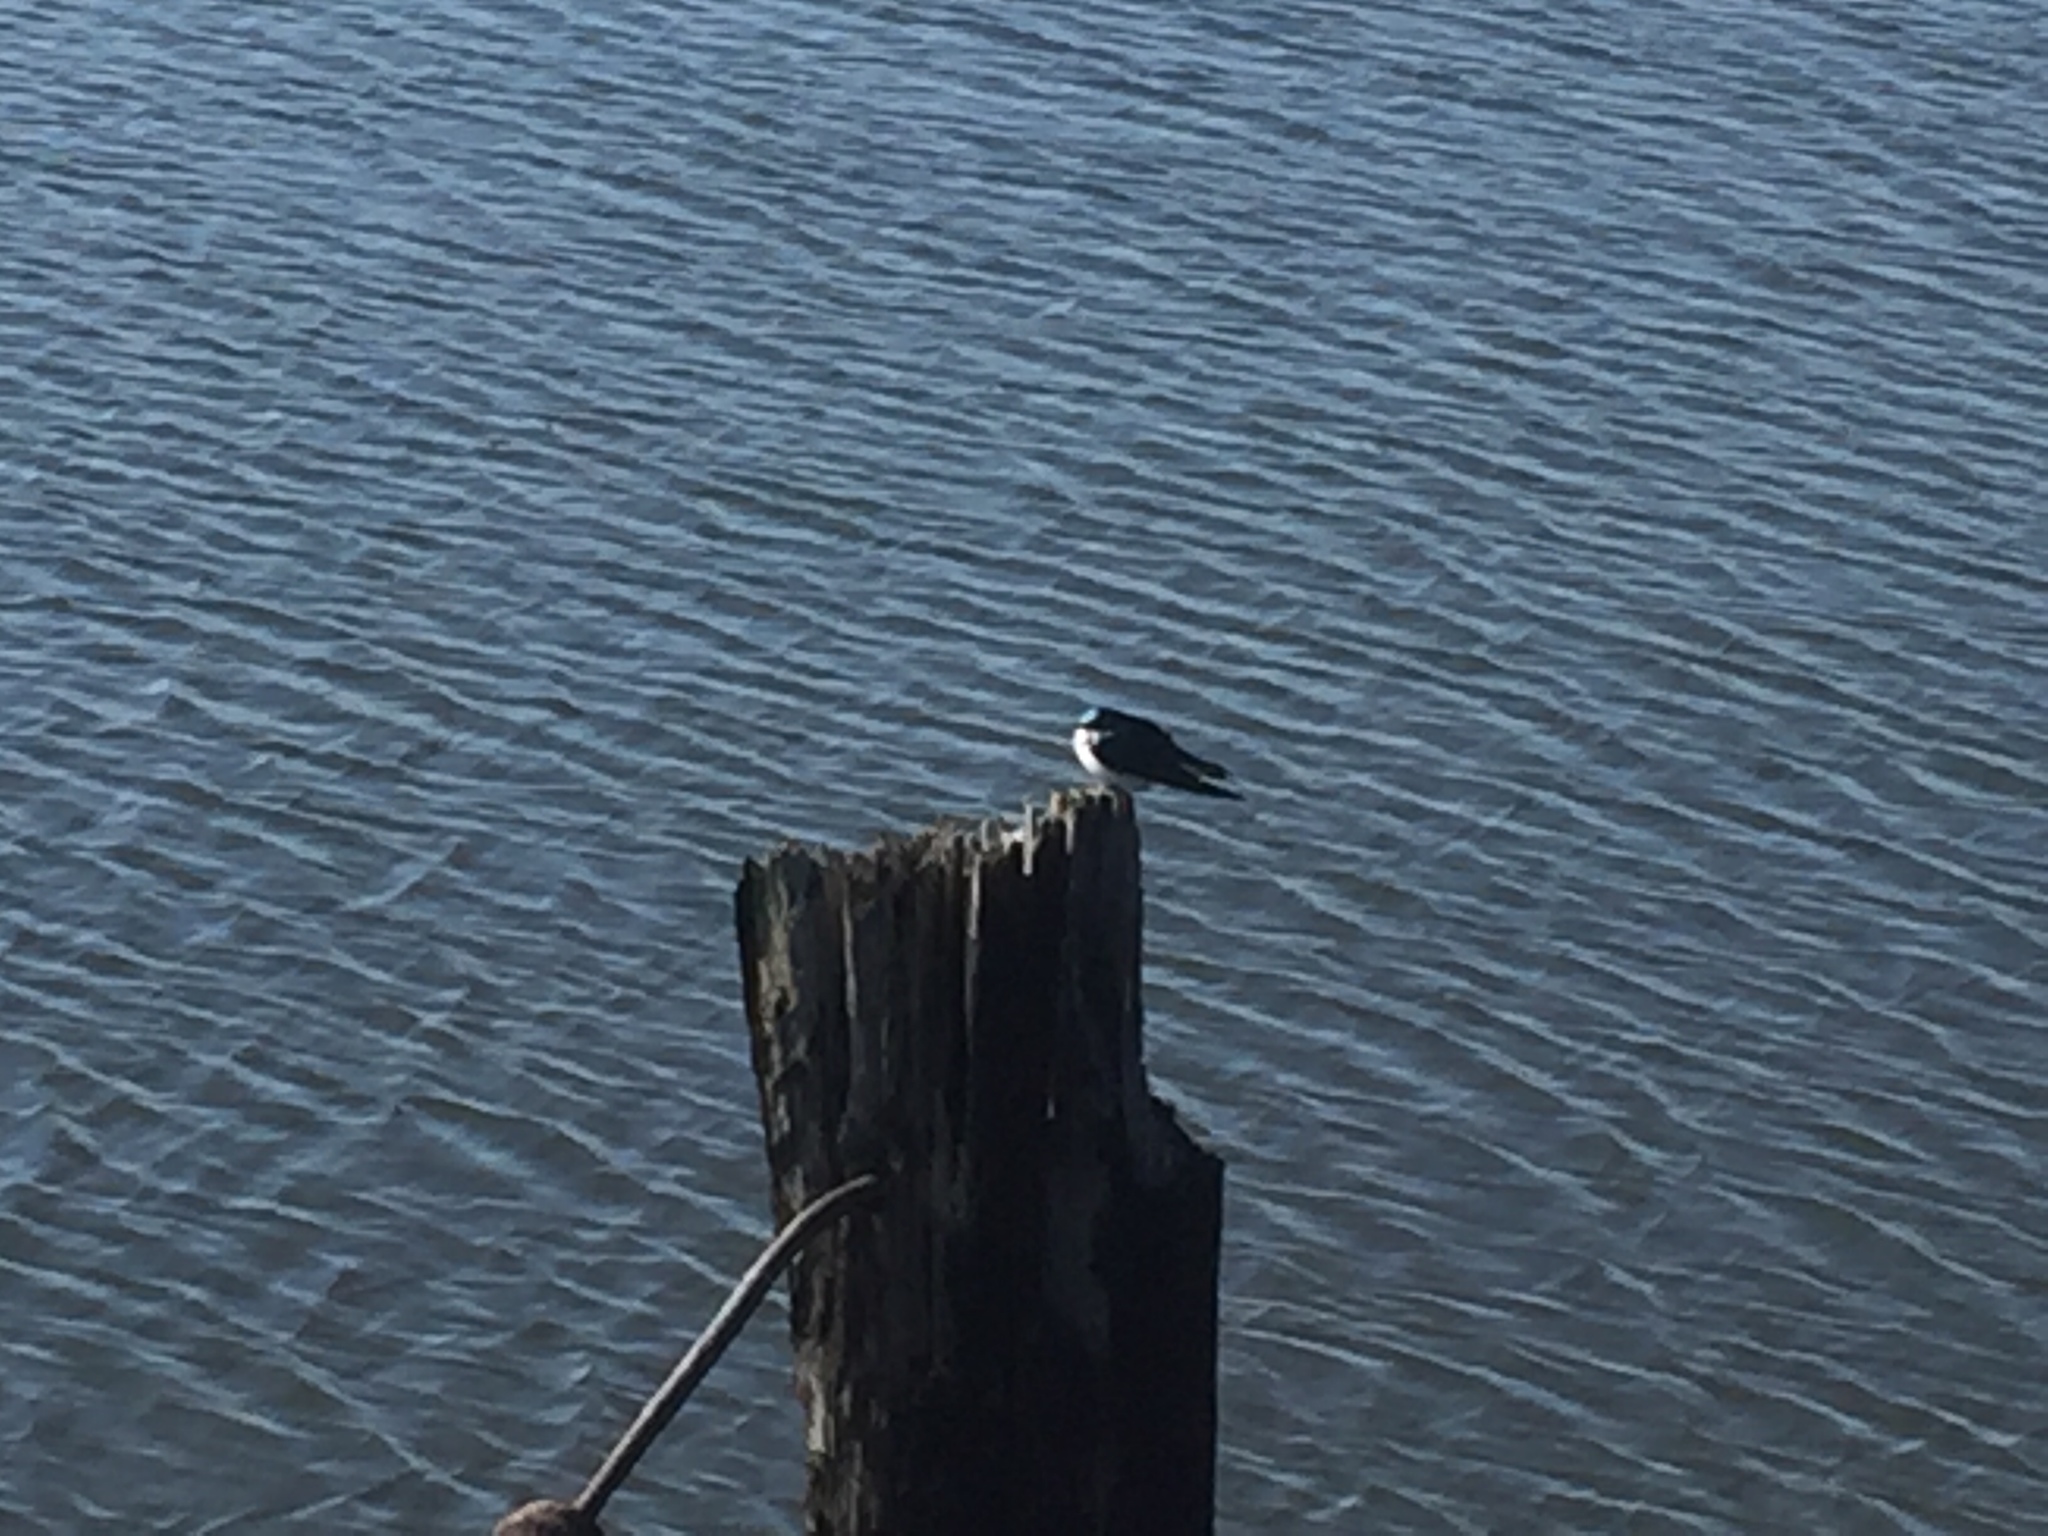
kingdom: Animalia
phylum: Chordata
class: Aves
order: Passeriformes
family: Hirundinidae
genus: Tachycineta
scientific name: Tachycineta bicolor
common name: Tree swallow
